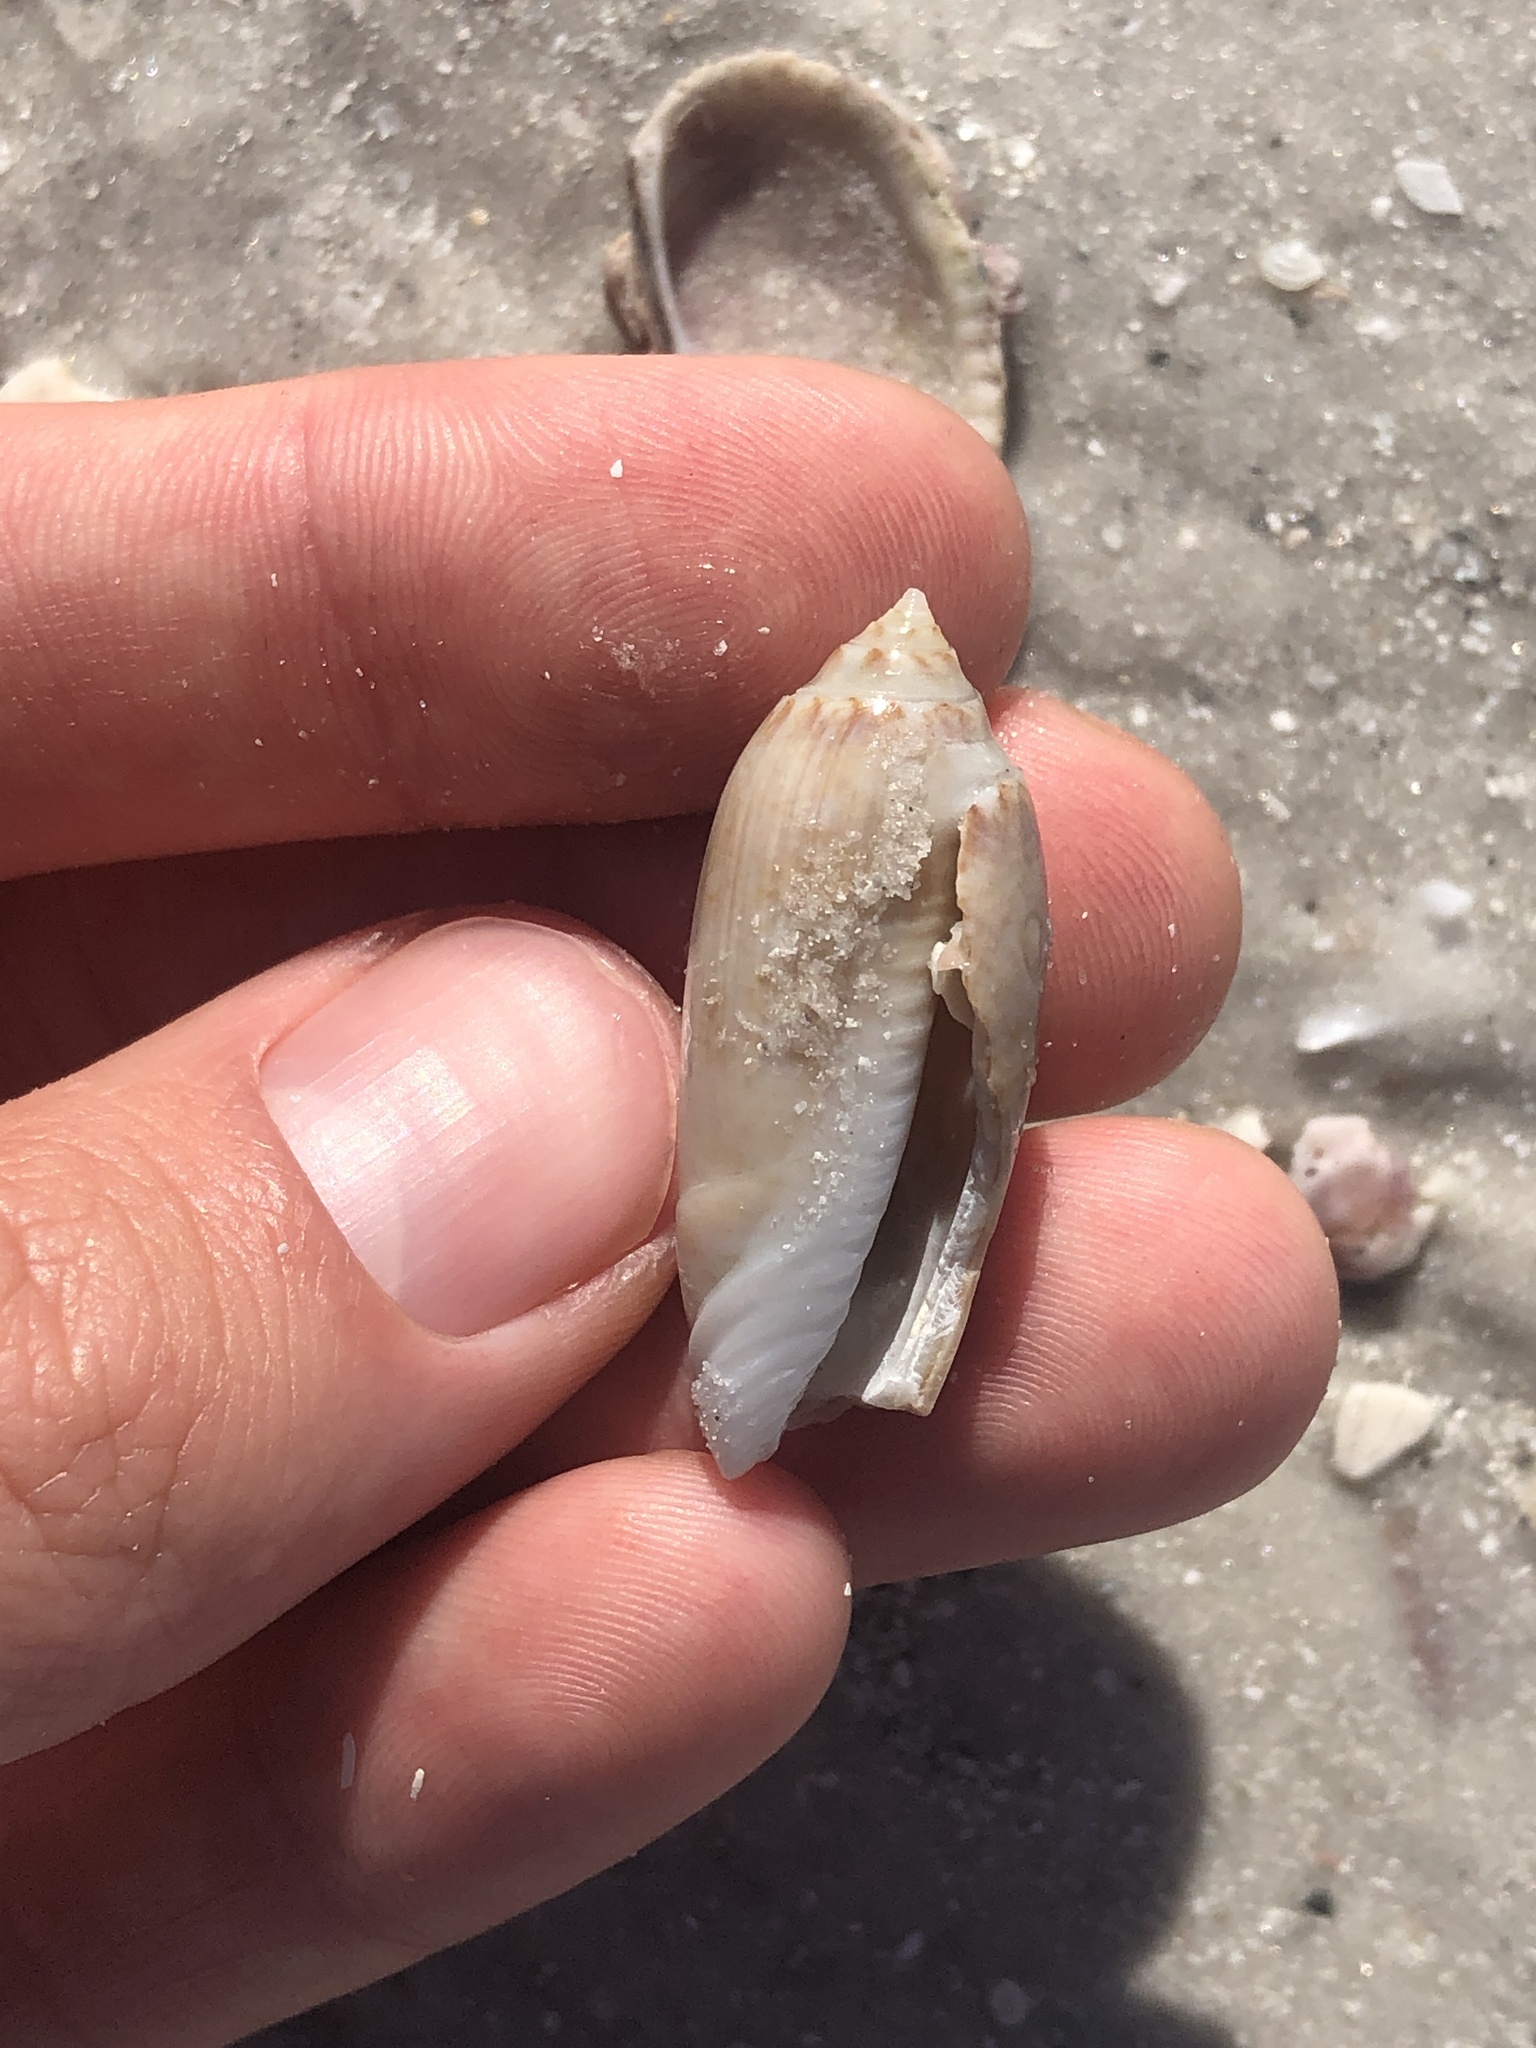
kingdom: Animalia
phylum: Mollusca
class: Gastropoda
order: Neogastropoda
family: Olividae
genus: Oliva
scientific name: Oliva sayana
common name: Lettered olive
